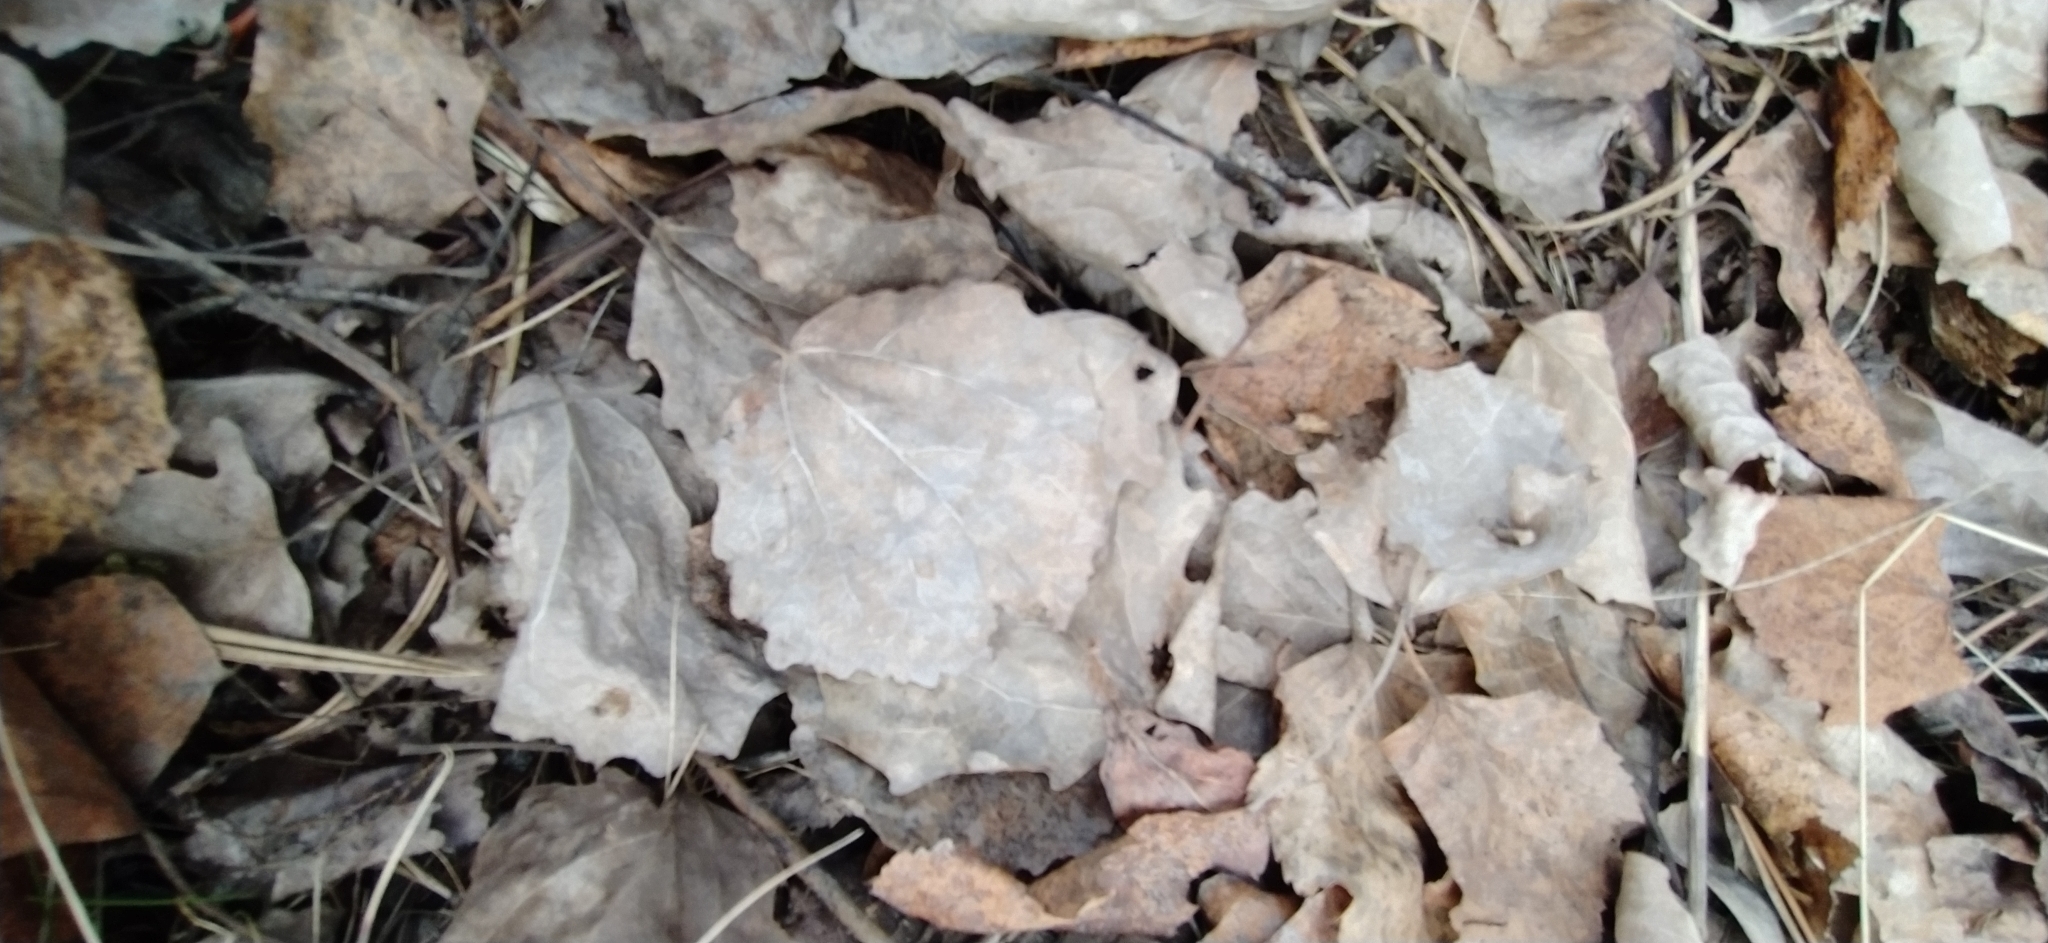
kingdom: Plantae
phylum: Tracheophyta
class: Magnoliopsida
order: Malpighiales
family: Salicaceae
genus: Populus
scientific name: Populus tremula
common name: European aspen
